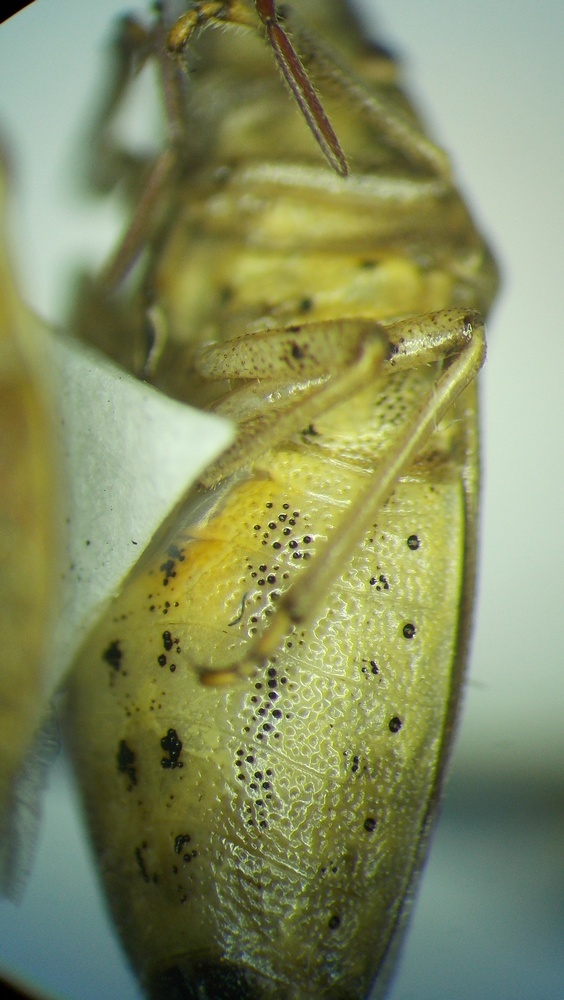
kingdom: Animalia
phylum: Arthropoda
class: Insecta
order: Hemiptera
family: Pentatomidae
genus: Aelia
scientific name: Aelia acuminata
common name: Bishop's mitre
